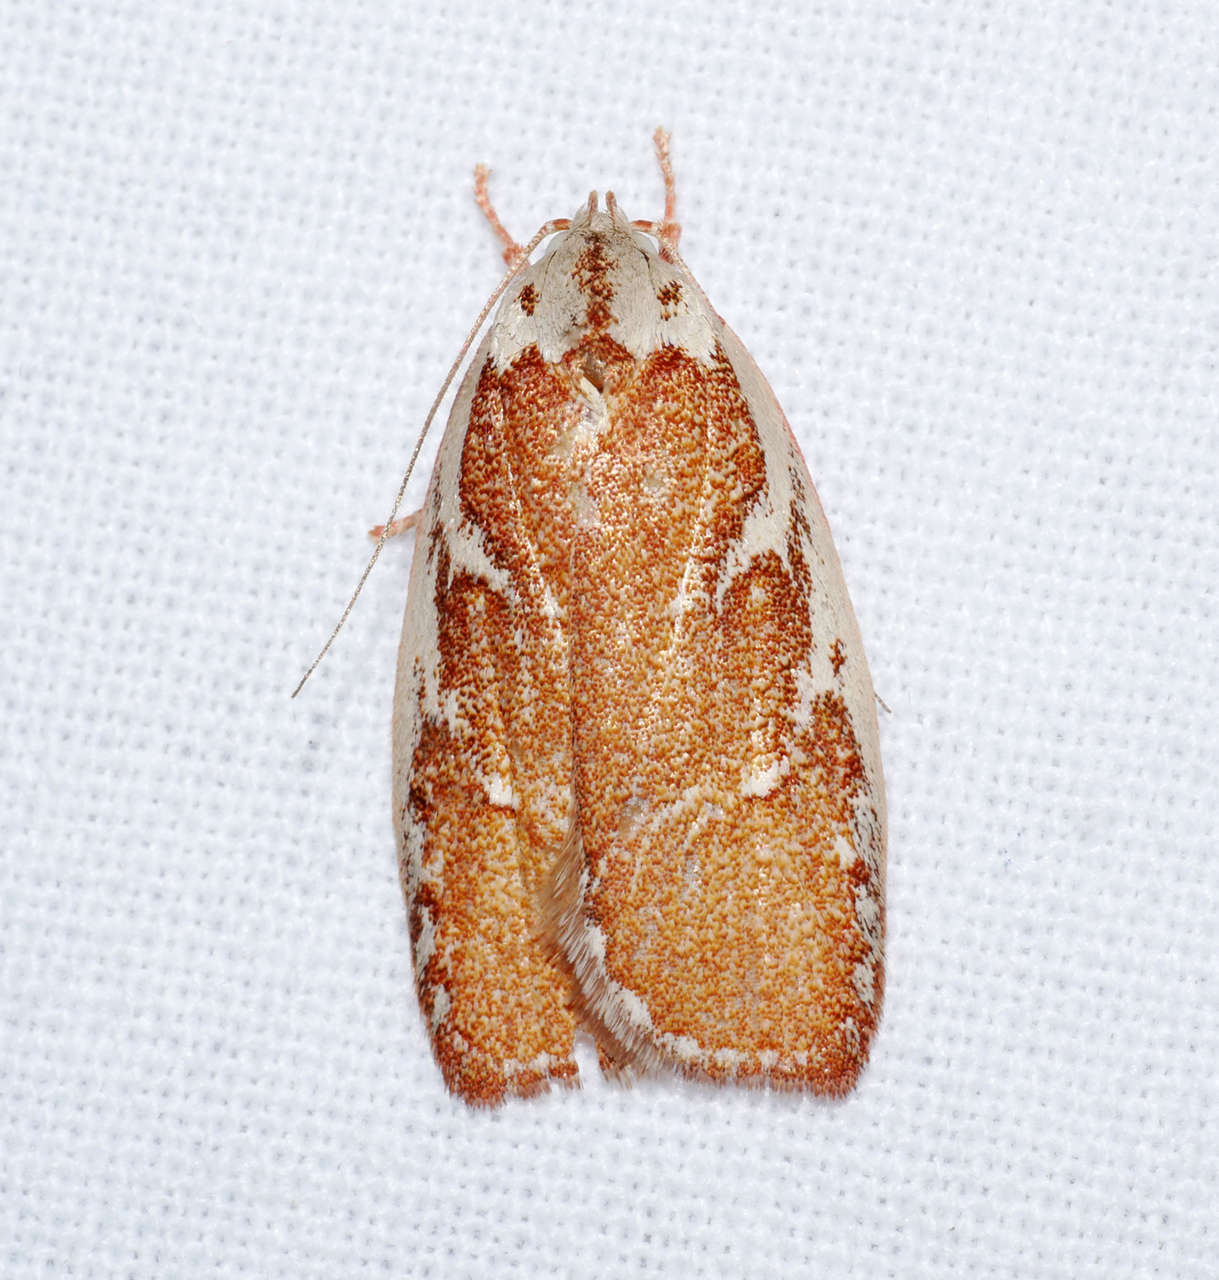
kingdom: Animalia
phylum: Arthropoda
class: Insecta
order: Lepidoptera
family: Oecophoridae
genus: Euchaetis
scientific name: Euchaetis rhizobola
